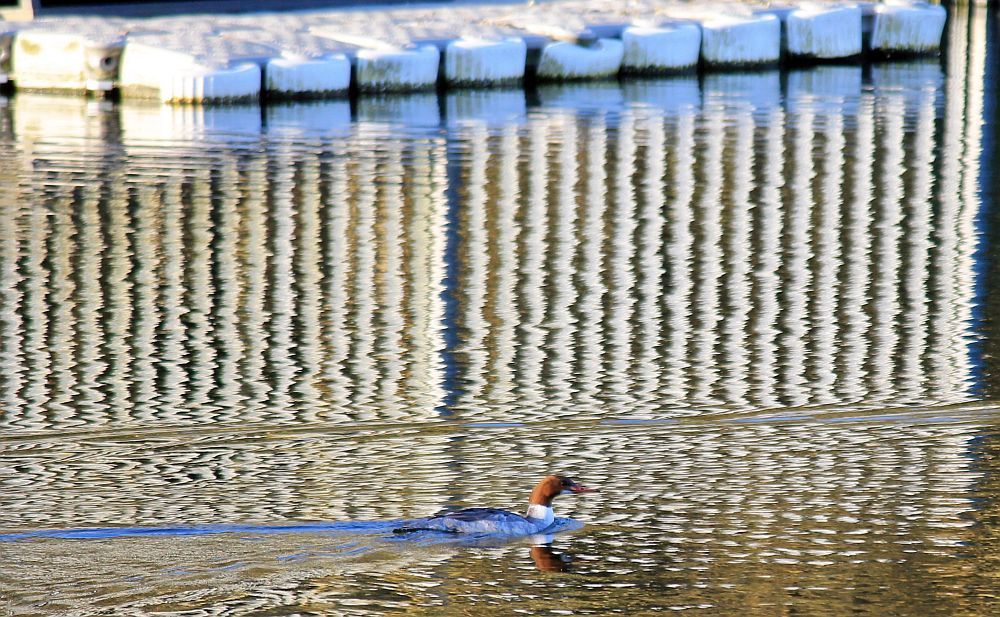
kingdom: Animalia
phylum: Chordata
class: Aves
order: Anseriformes
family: Anatidae
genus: Mergus
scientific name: Mergus merganser
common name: Common merganser
